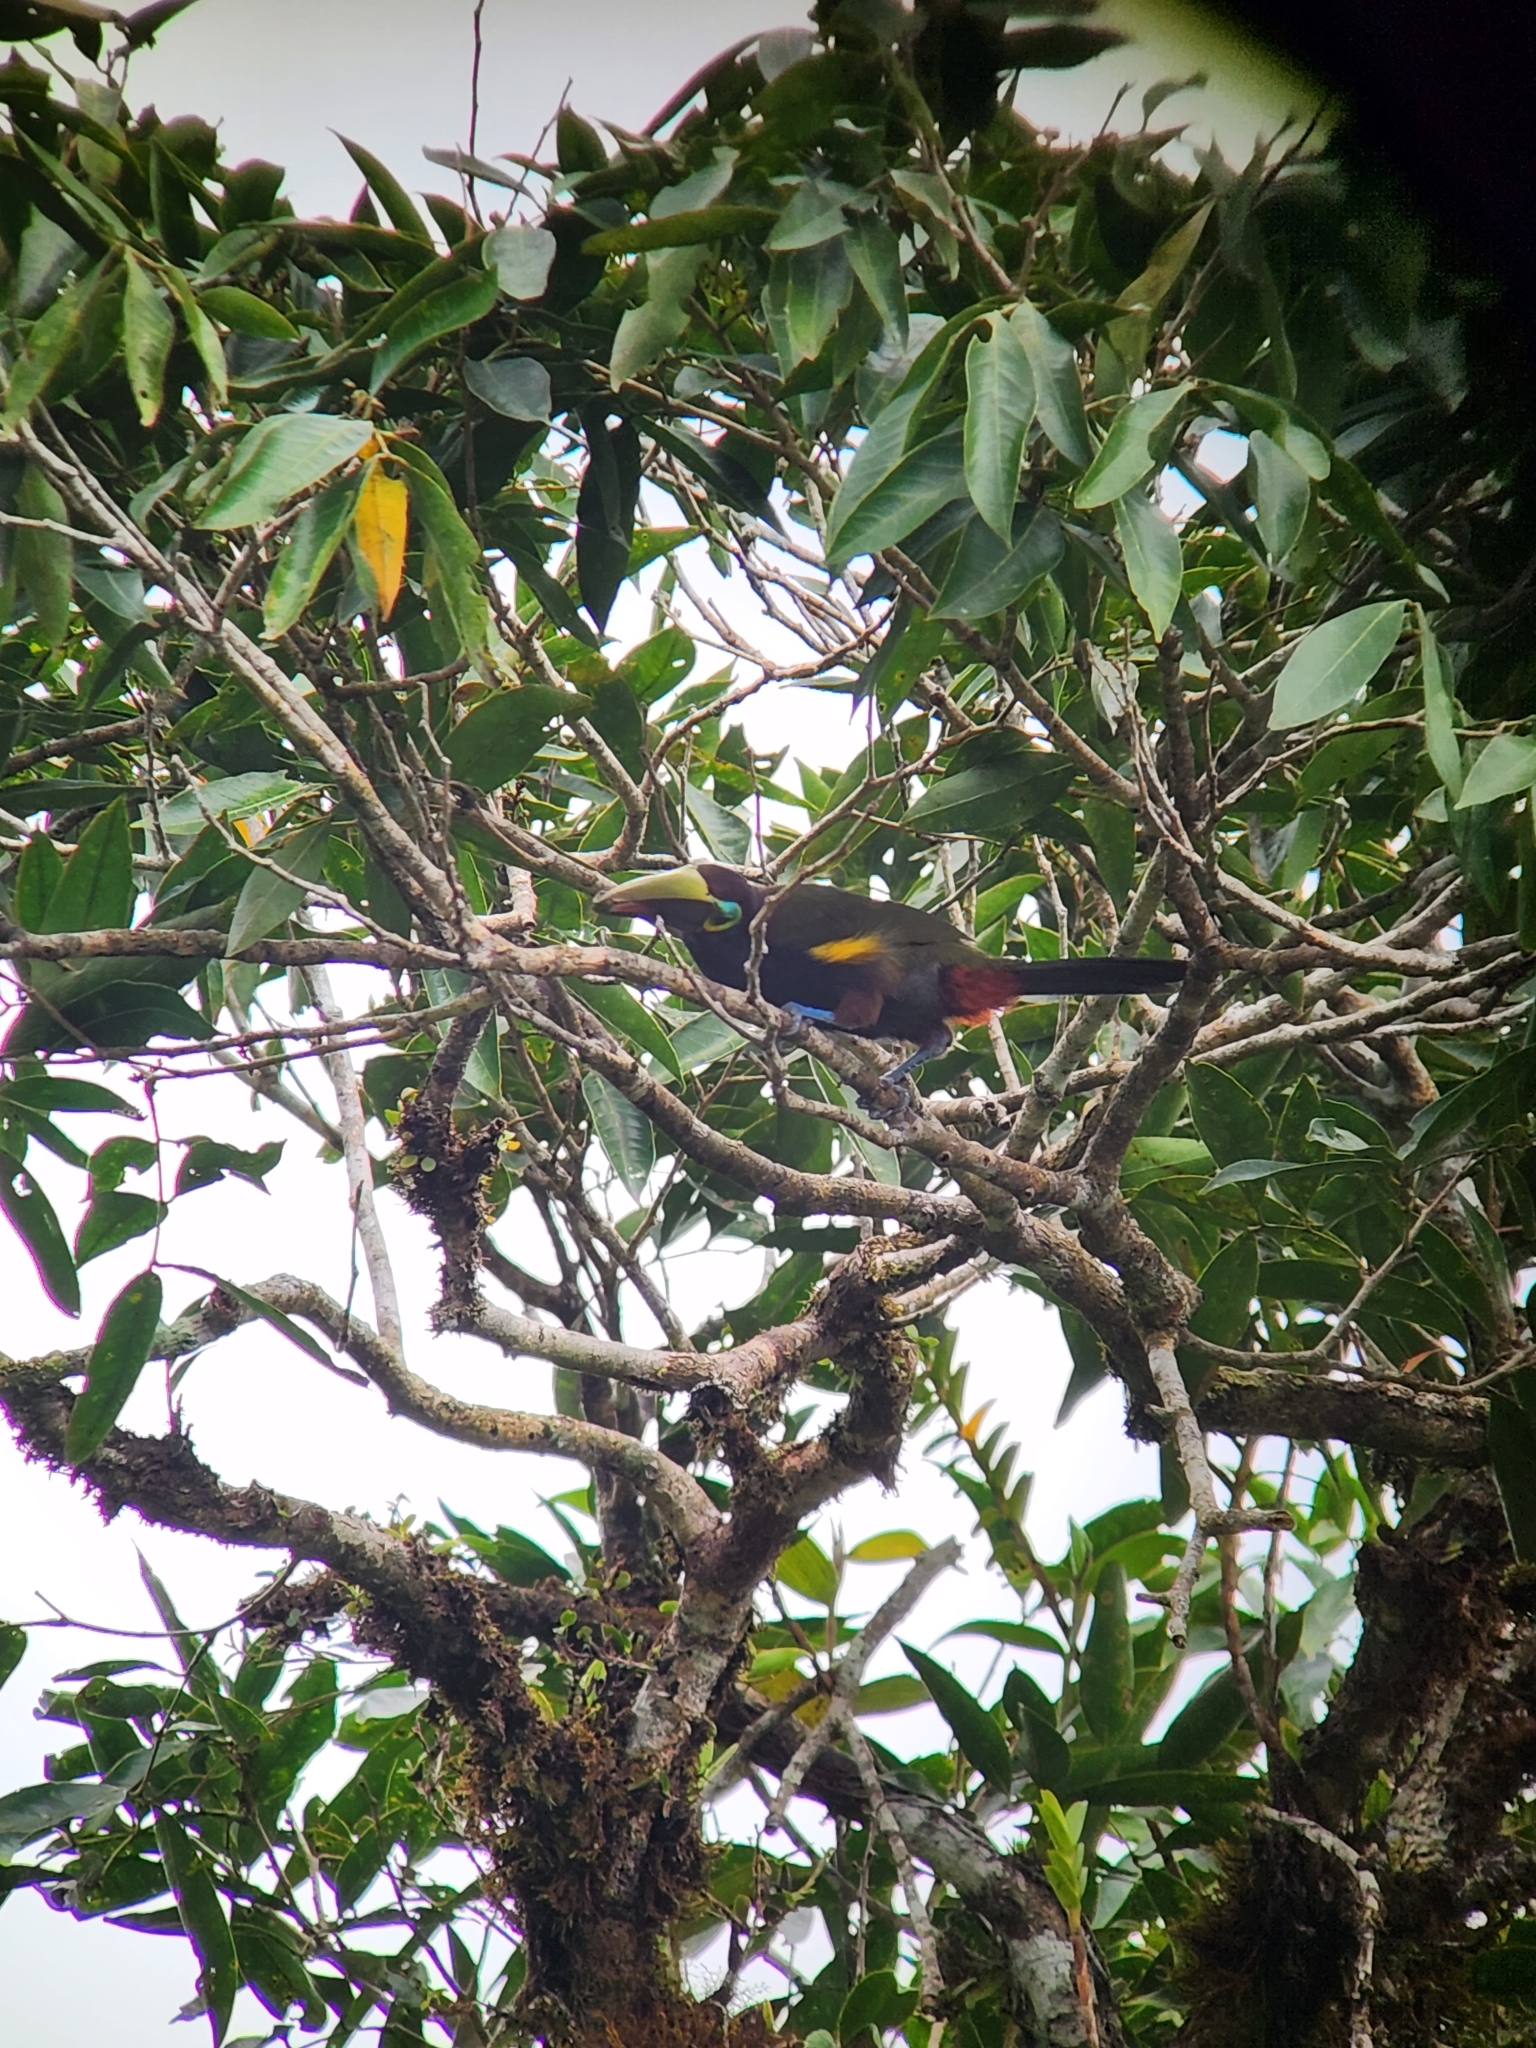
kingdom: Animalia
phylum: Chordata
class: Aves
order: Piciformes
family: Ramphastidae
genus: Selenidera
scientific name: Selenidera spectabilis
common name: Yellow-eared toucanet
